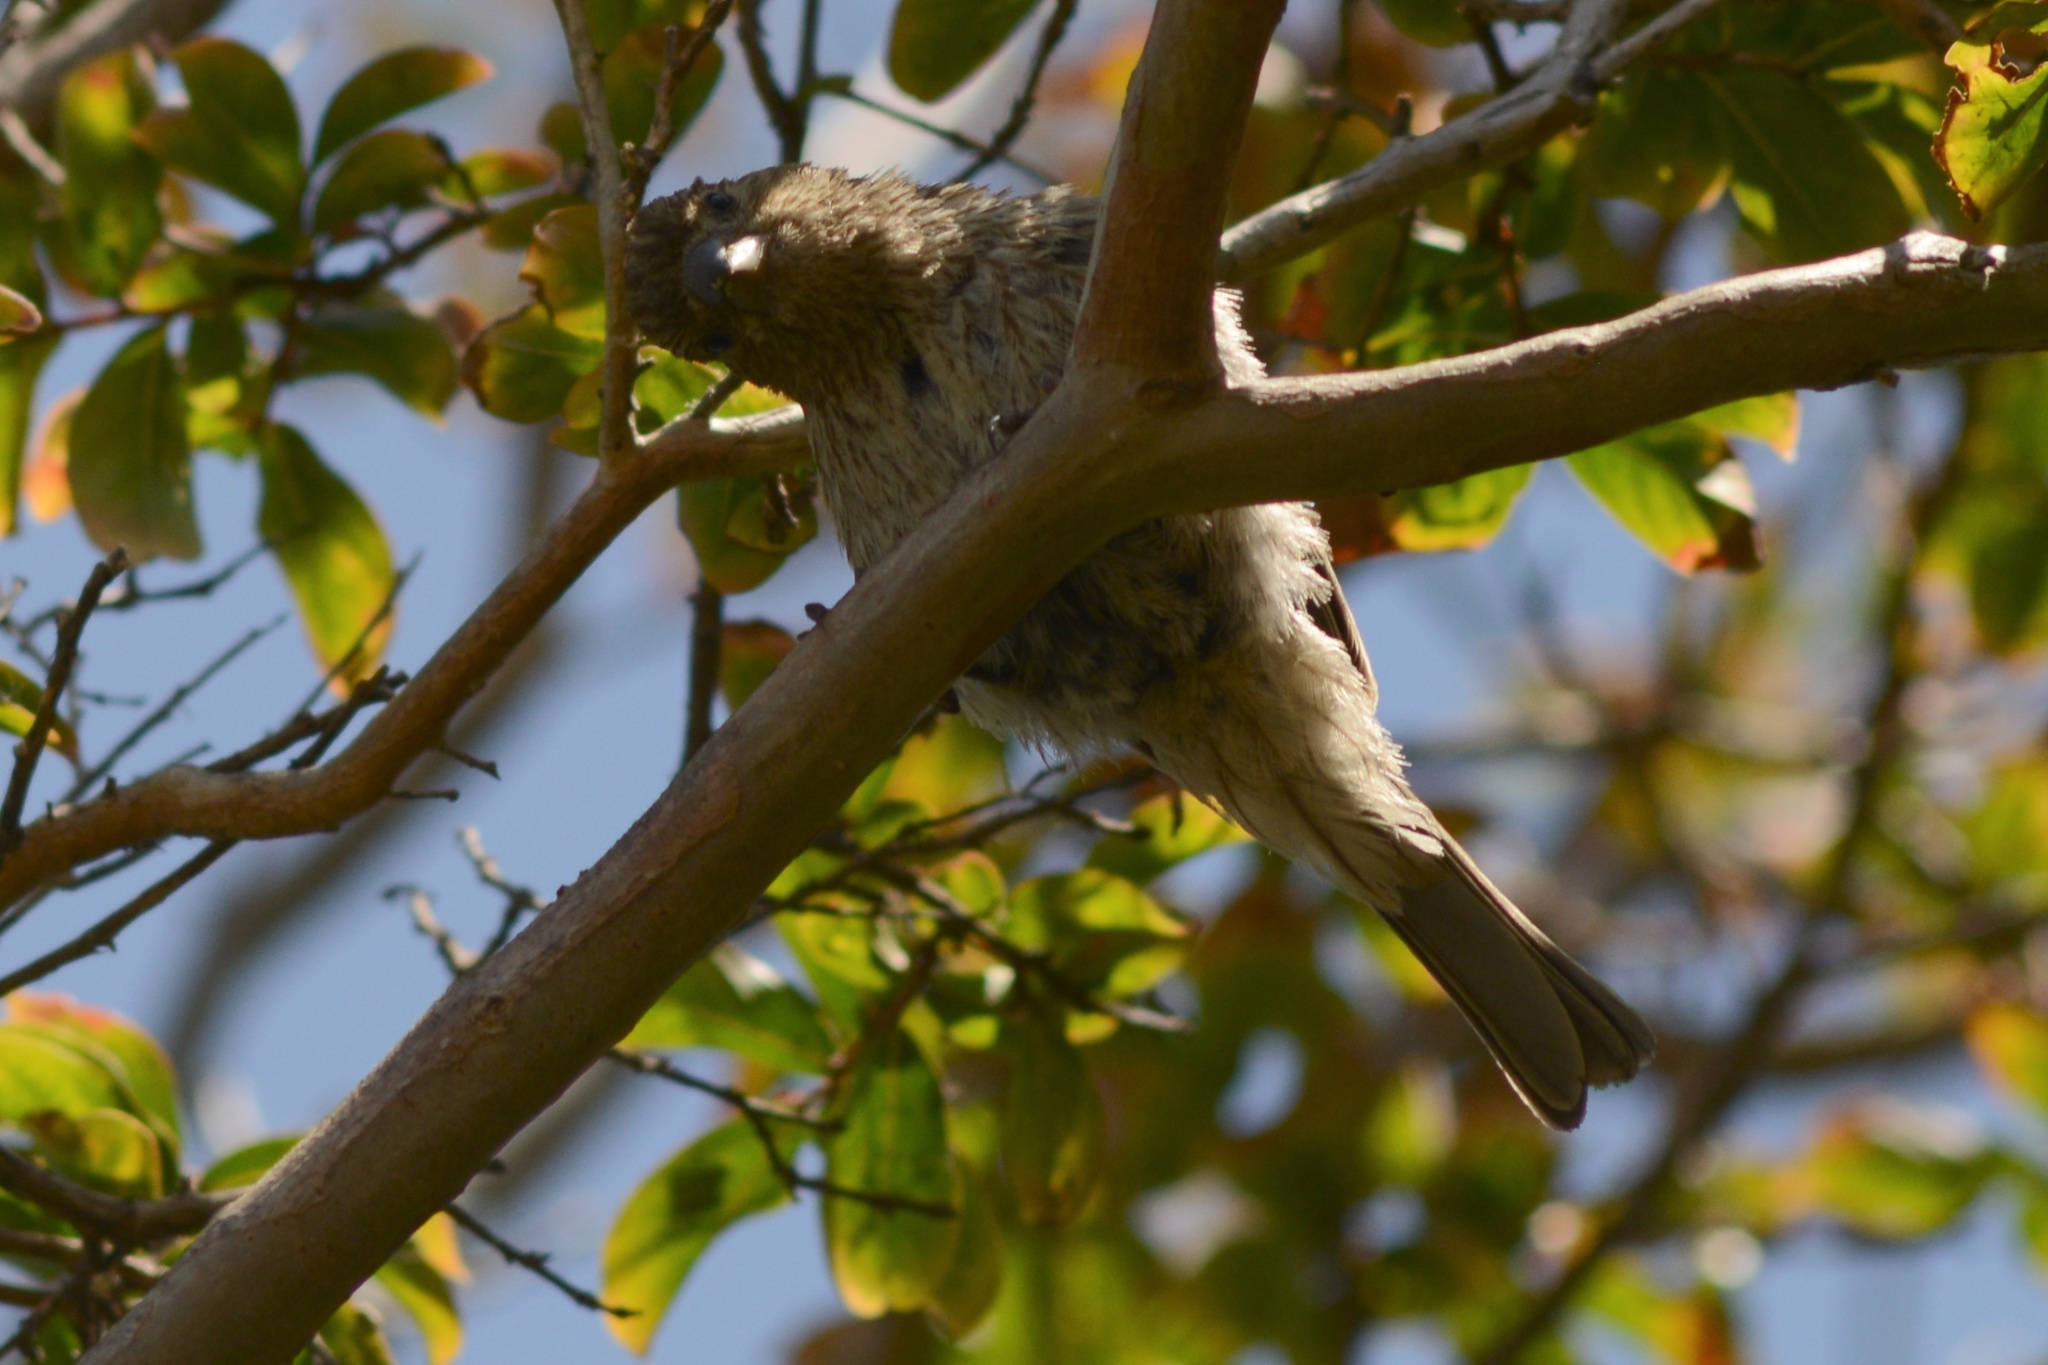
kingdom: Animalia
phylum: Chordata
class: Aves
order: Passeriformes
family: Fringillidae
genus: Haemorhous
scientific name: Haemorhous mexicanus
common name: House finch
